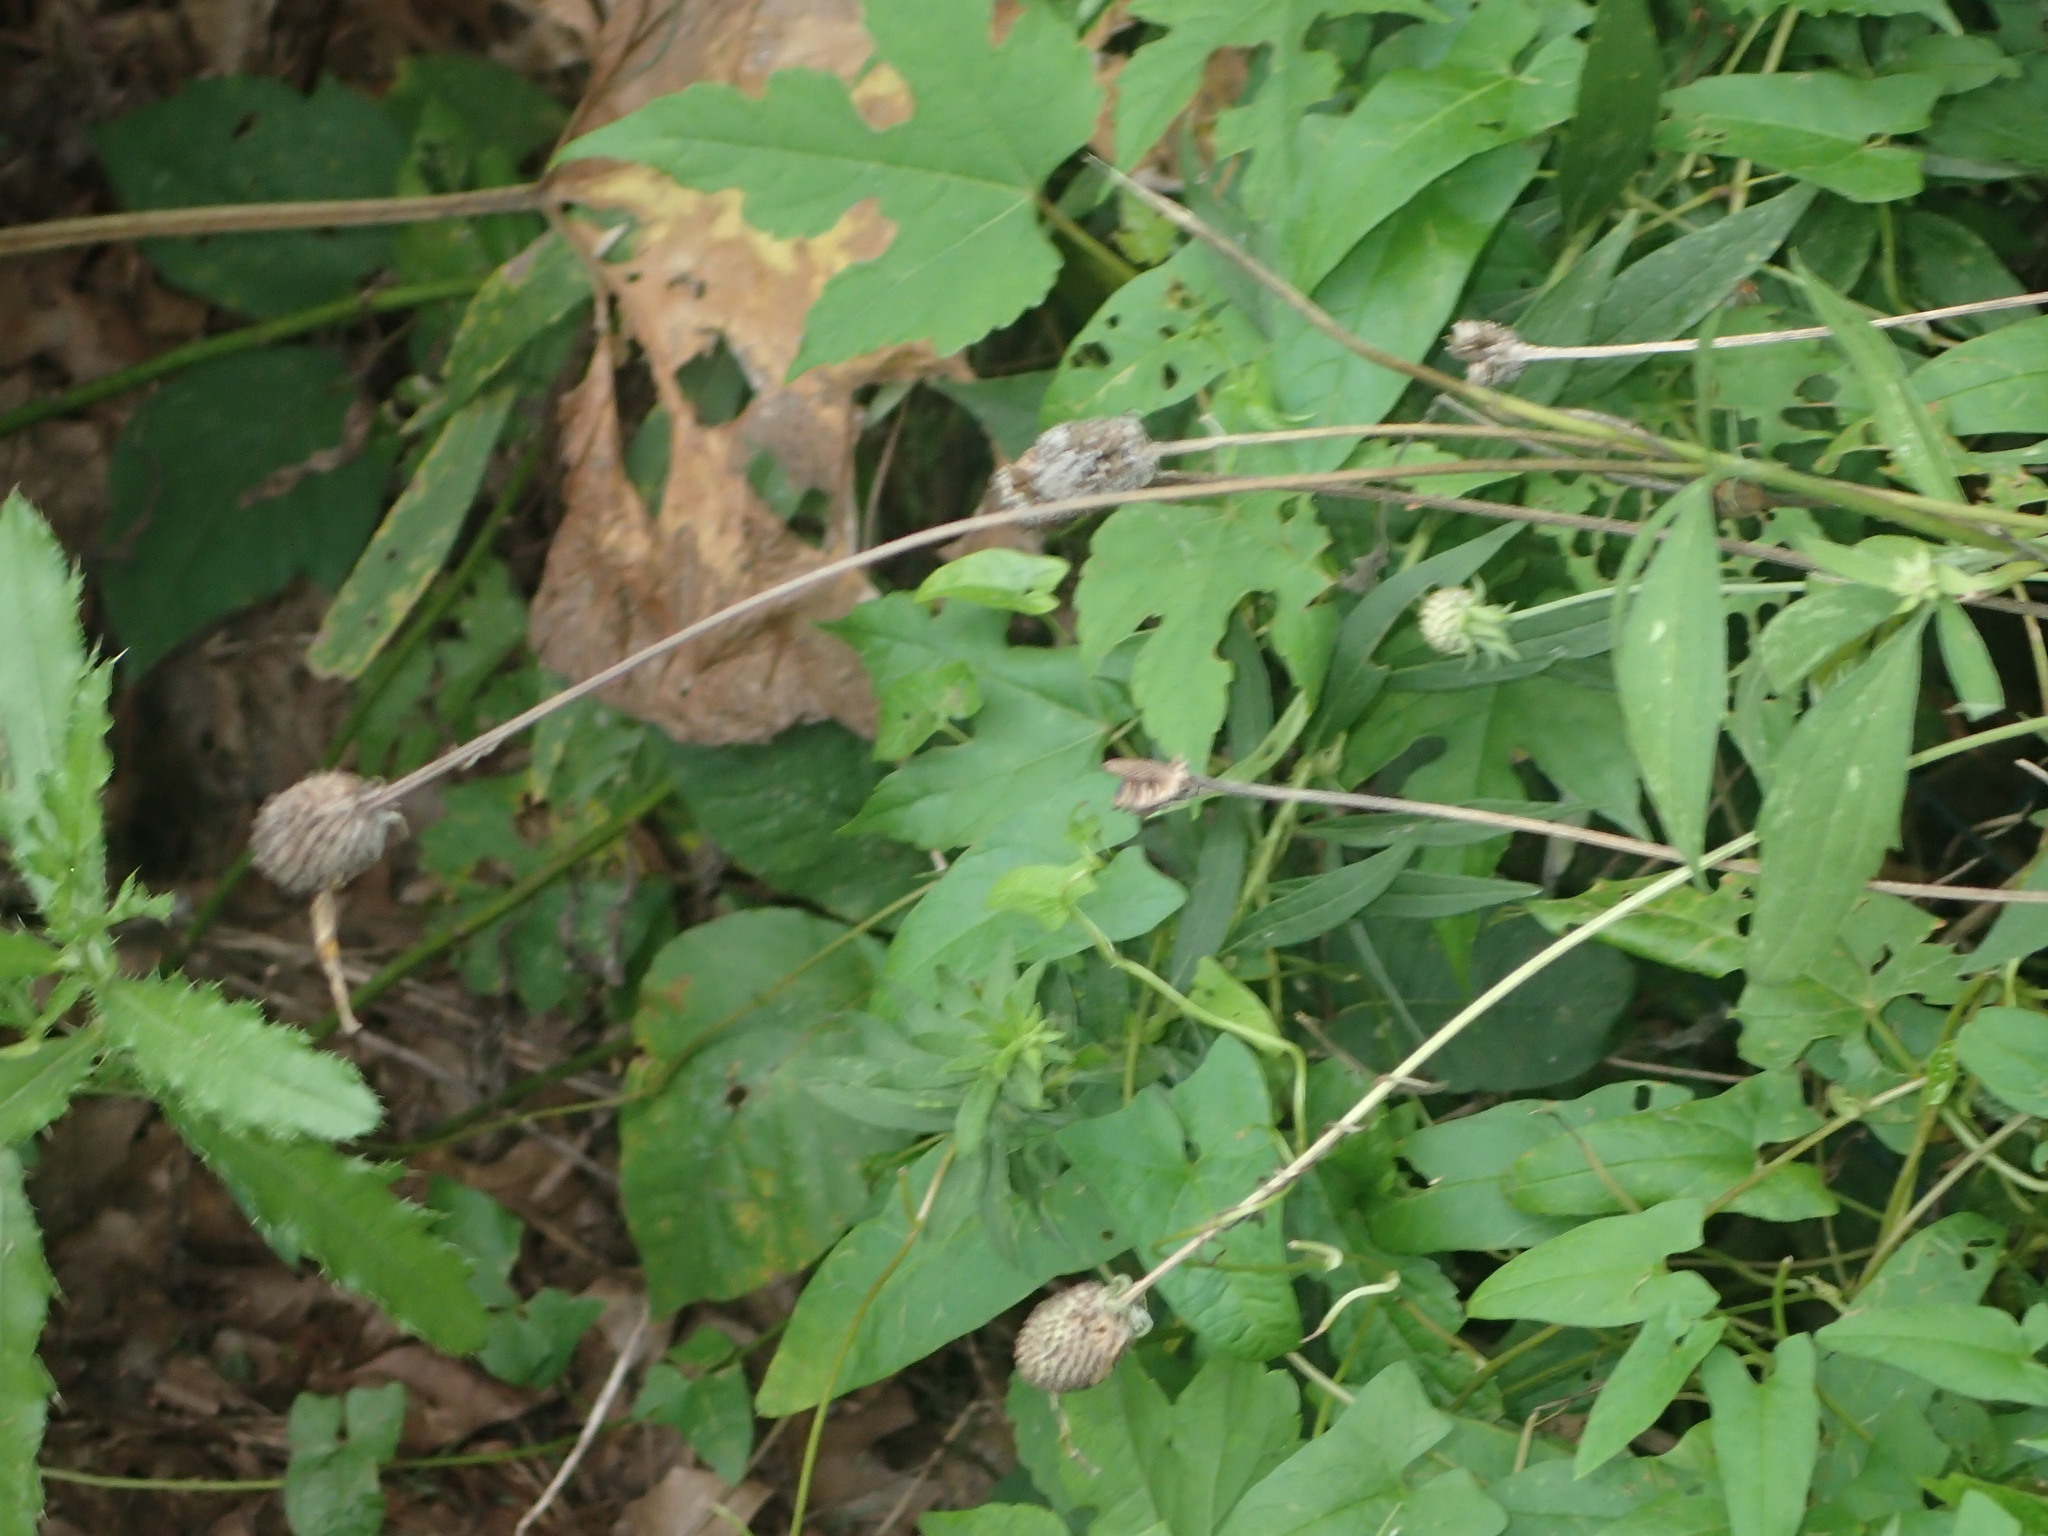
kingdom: Plantae
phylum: Tracheophyta
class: Magnoliopsida
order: Asterales
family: Asteraceae
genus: Ratibida
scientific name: Ratibida pinnata
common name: Drooping prairie-coneflower
